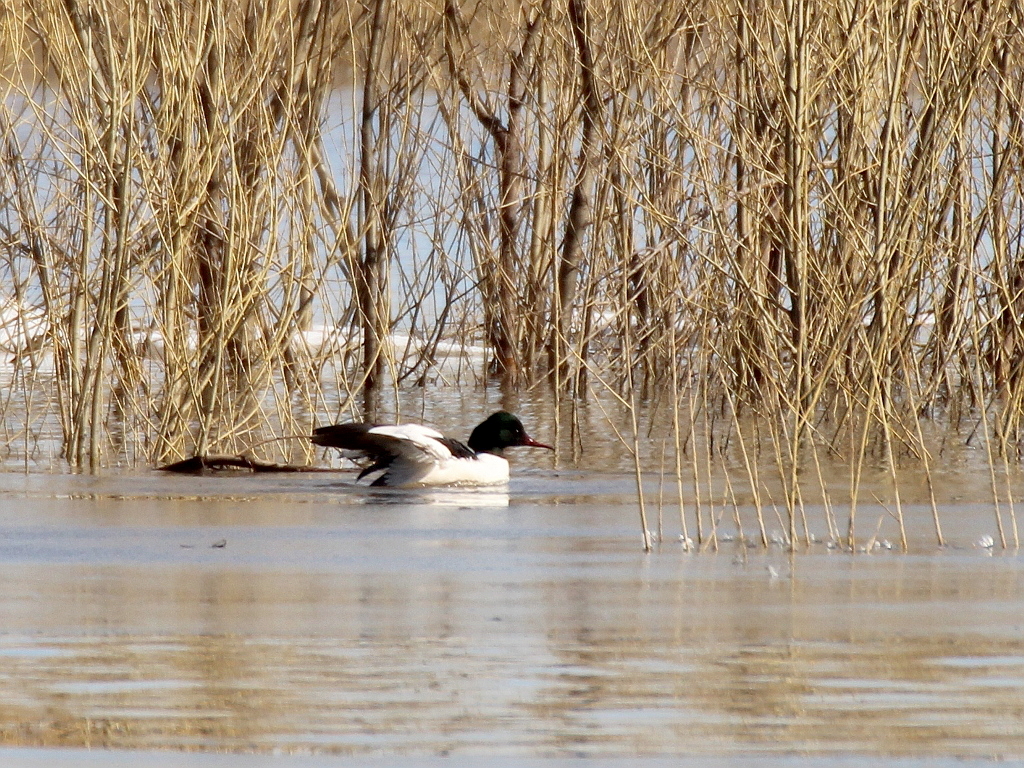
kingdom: Animalia
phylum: Chordata
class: Aves
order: Anseriformes
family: Anatidae
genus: Mergus
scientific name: Mergus merganser
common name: Common merganser
